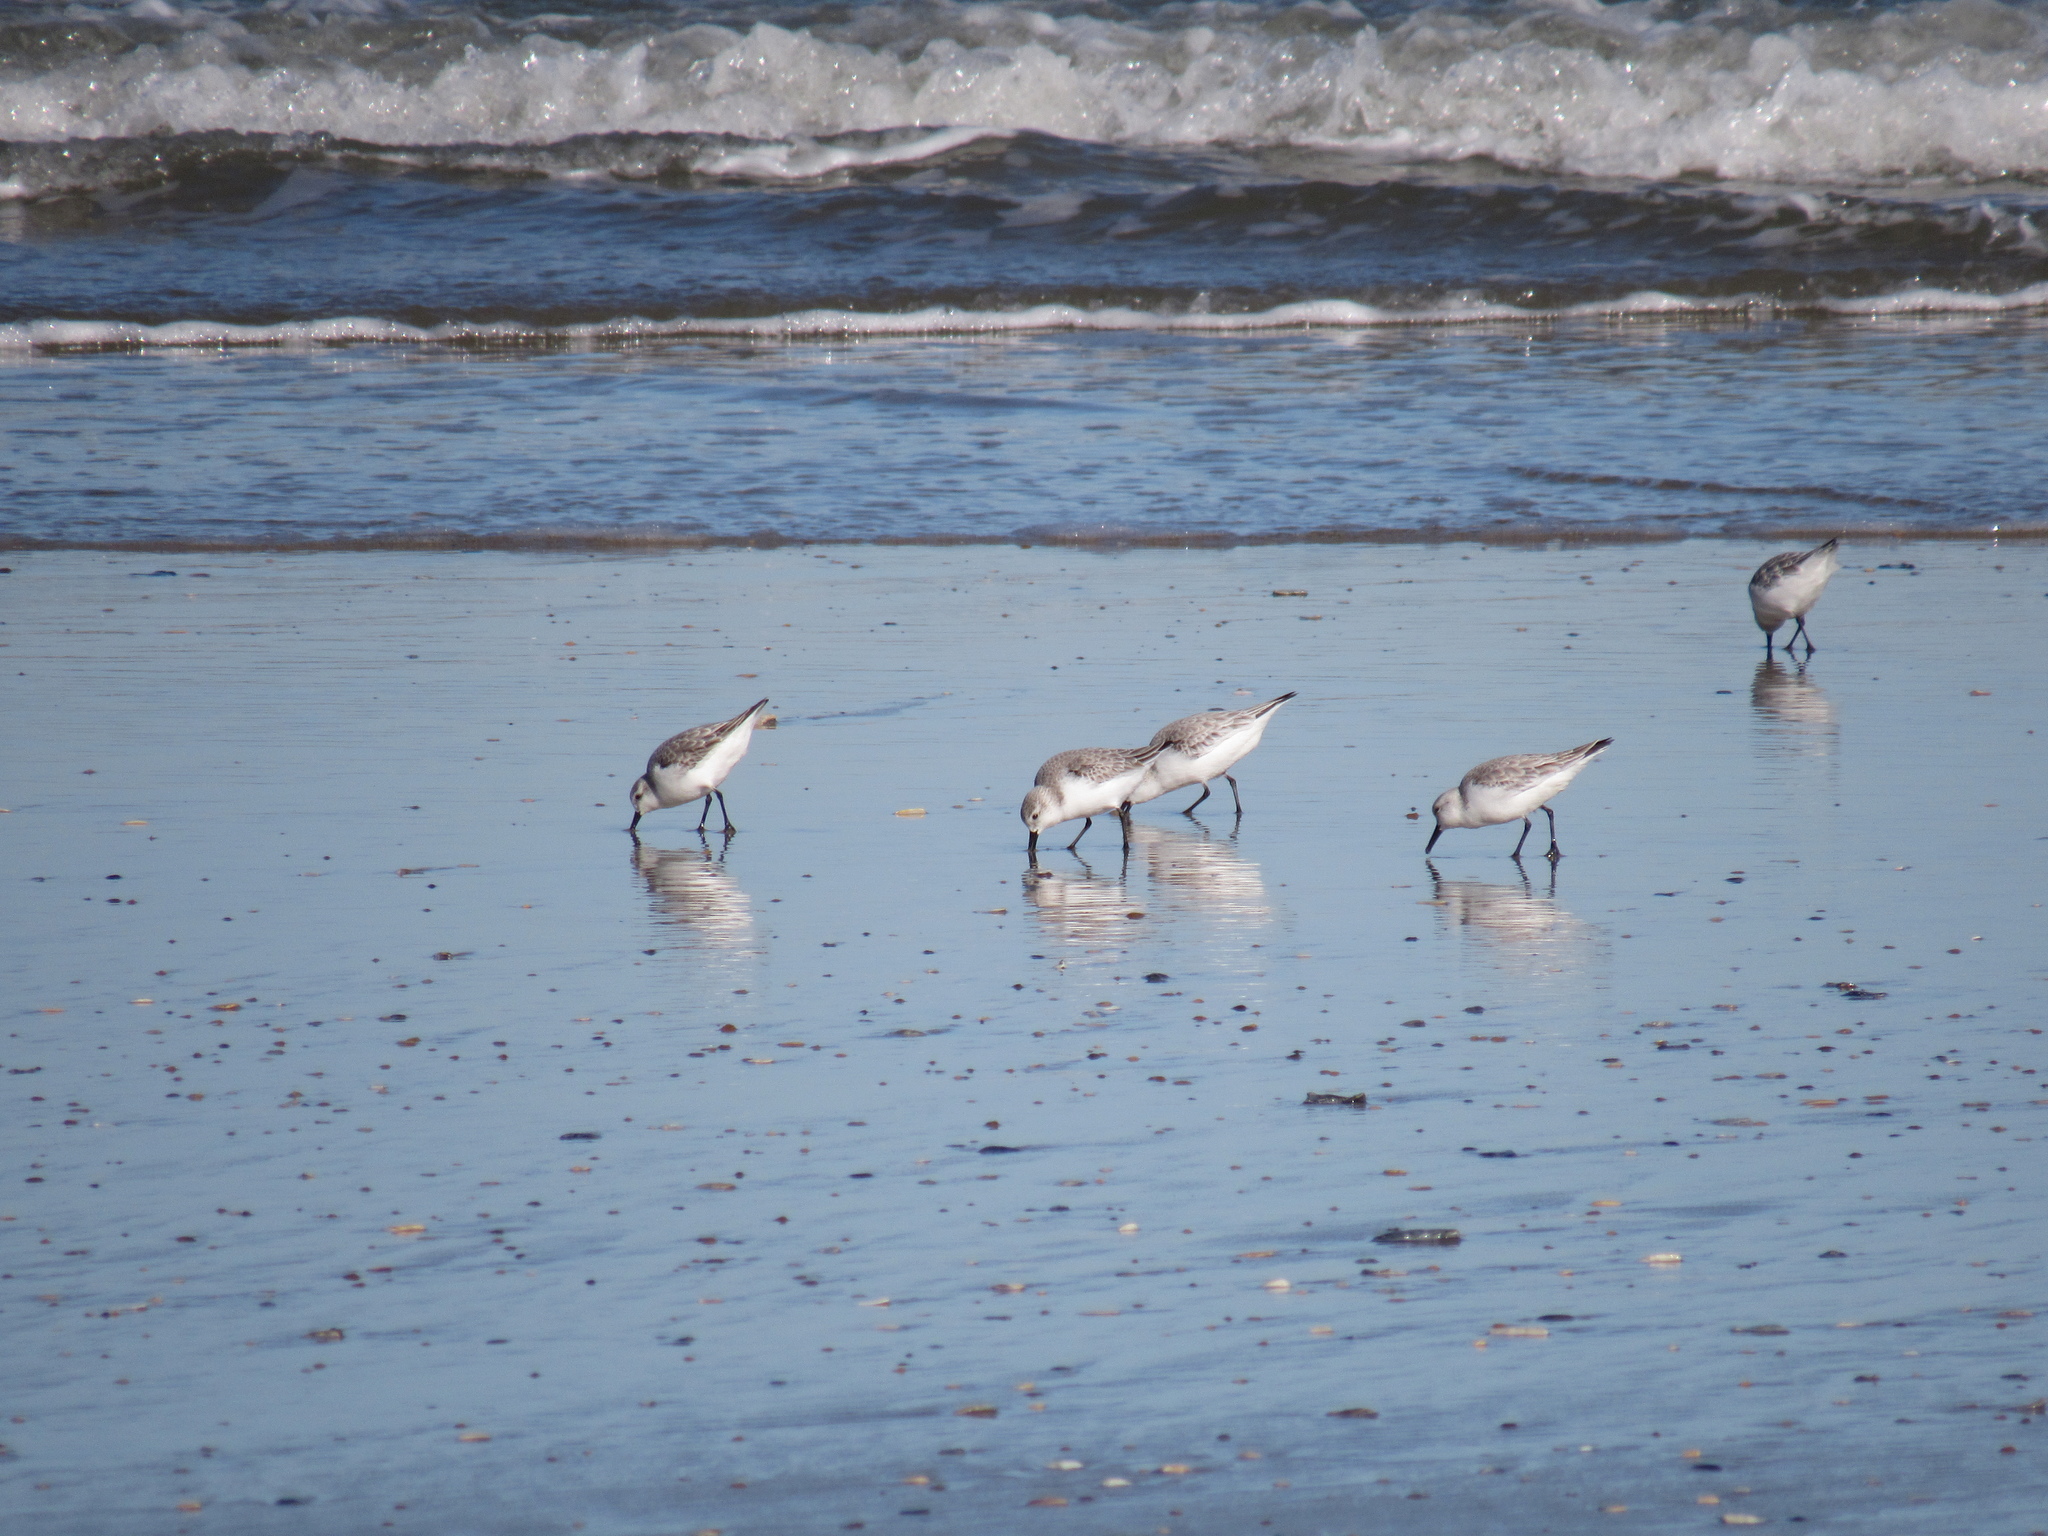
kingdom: Animalia
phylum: Chordata
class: Aves
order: Charadriiformes
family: Scolopacidae
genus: Calidris
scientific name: Calidris alba
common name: Sanderling
